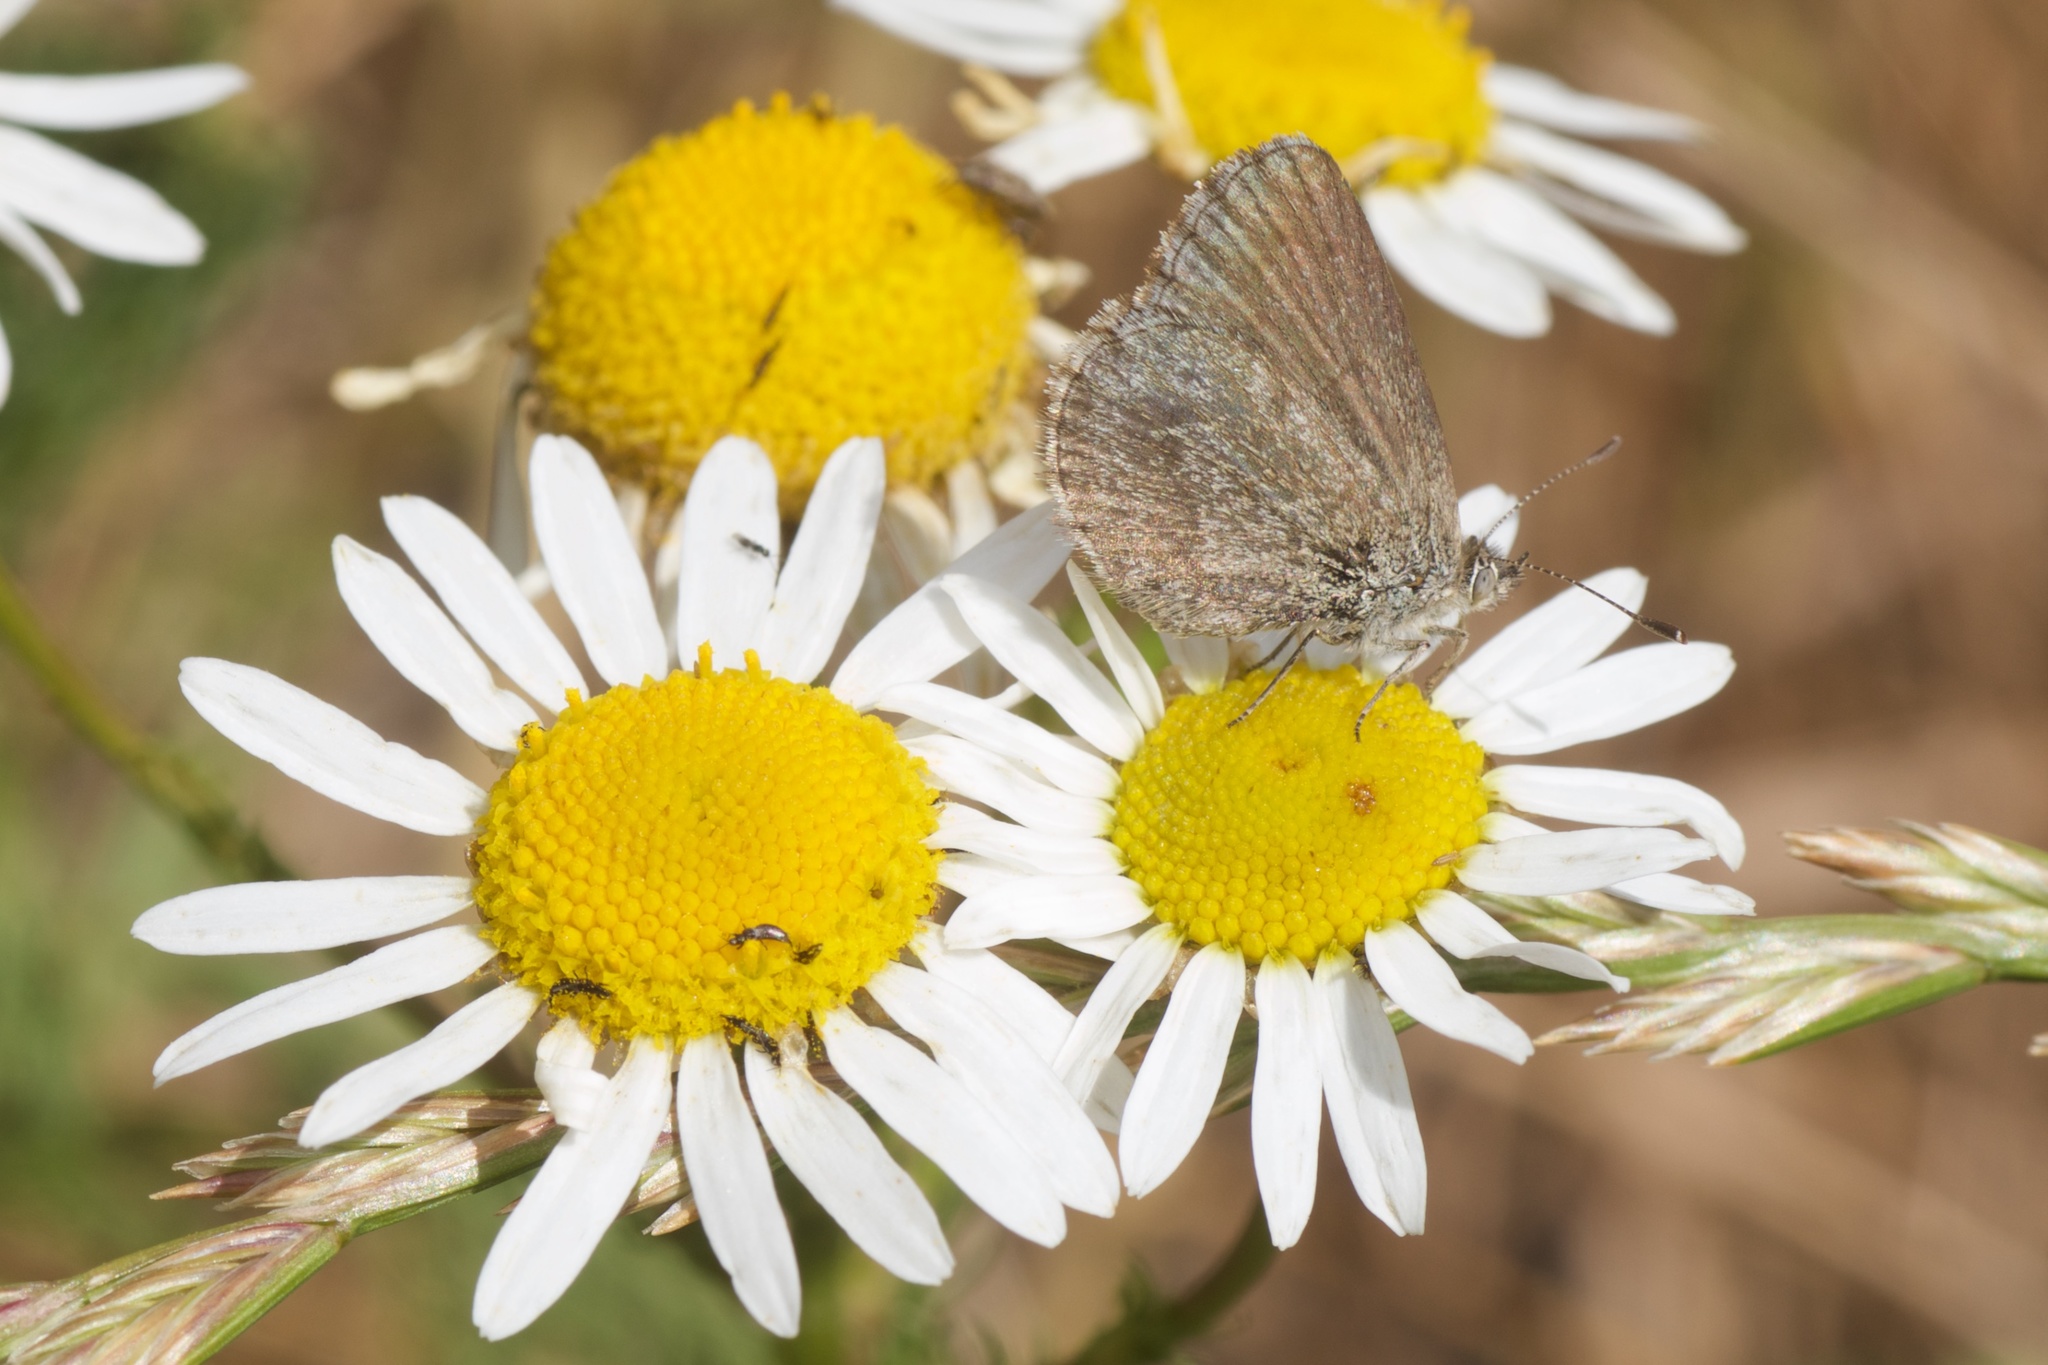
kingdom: Animalia
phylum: Arthropoda
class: Insecta
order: Lepidoptera
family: Lycaenidae
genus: Zizina
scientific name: Zizina oxleyi
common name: Southern blue
